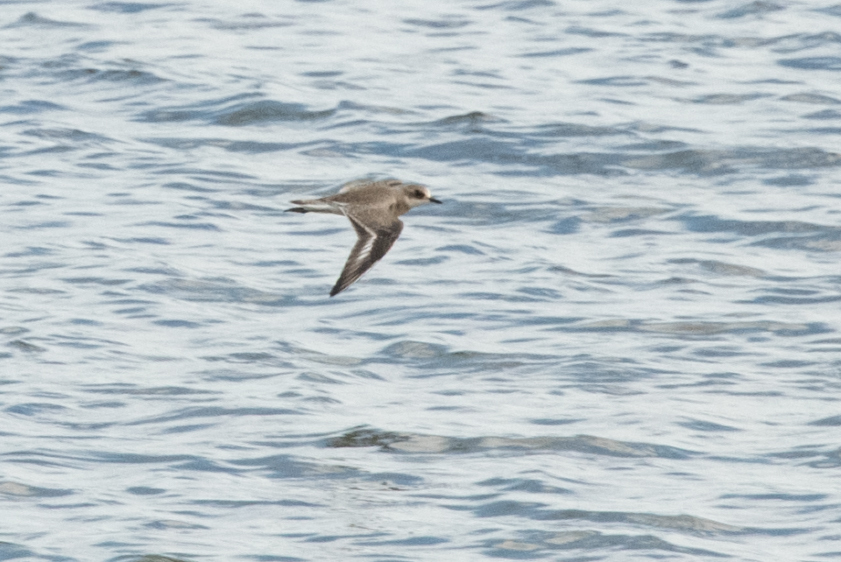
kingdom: Animalia
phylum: Chordata
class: Aves
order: Charadriiformes
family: Charadriidae
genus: Anarhynchus
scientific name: Anarhynchus
